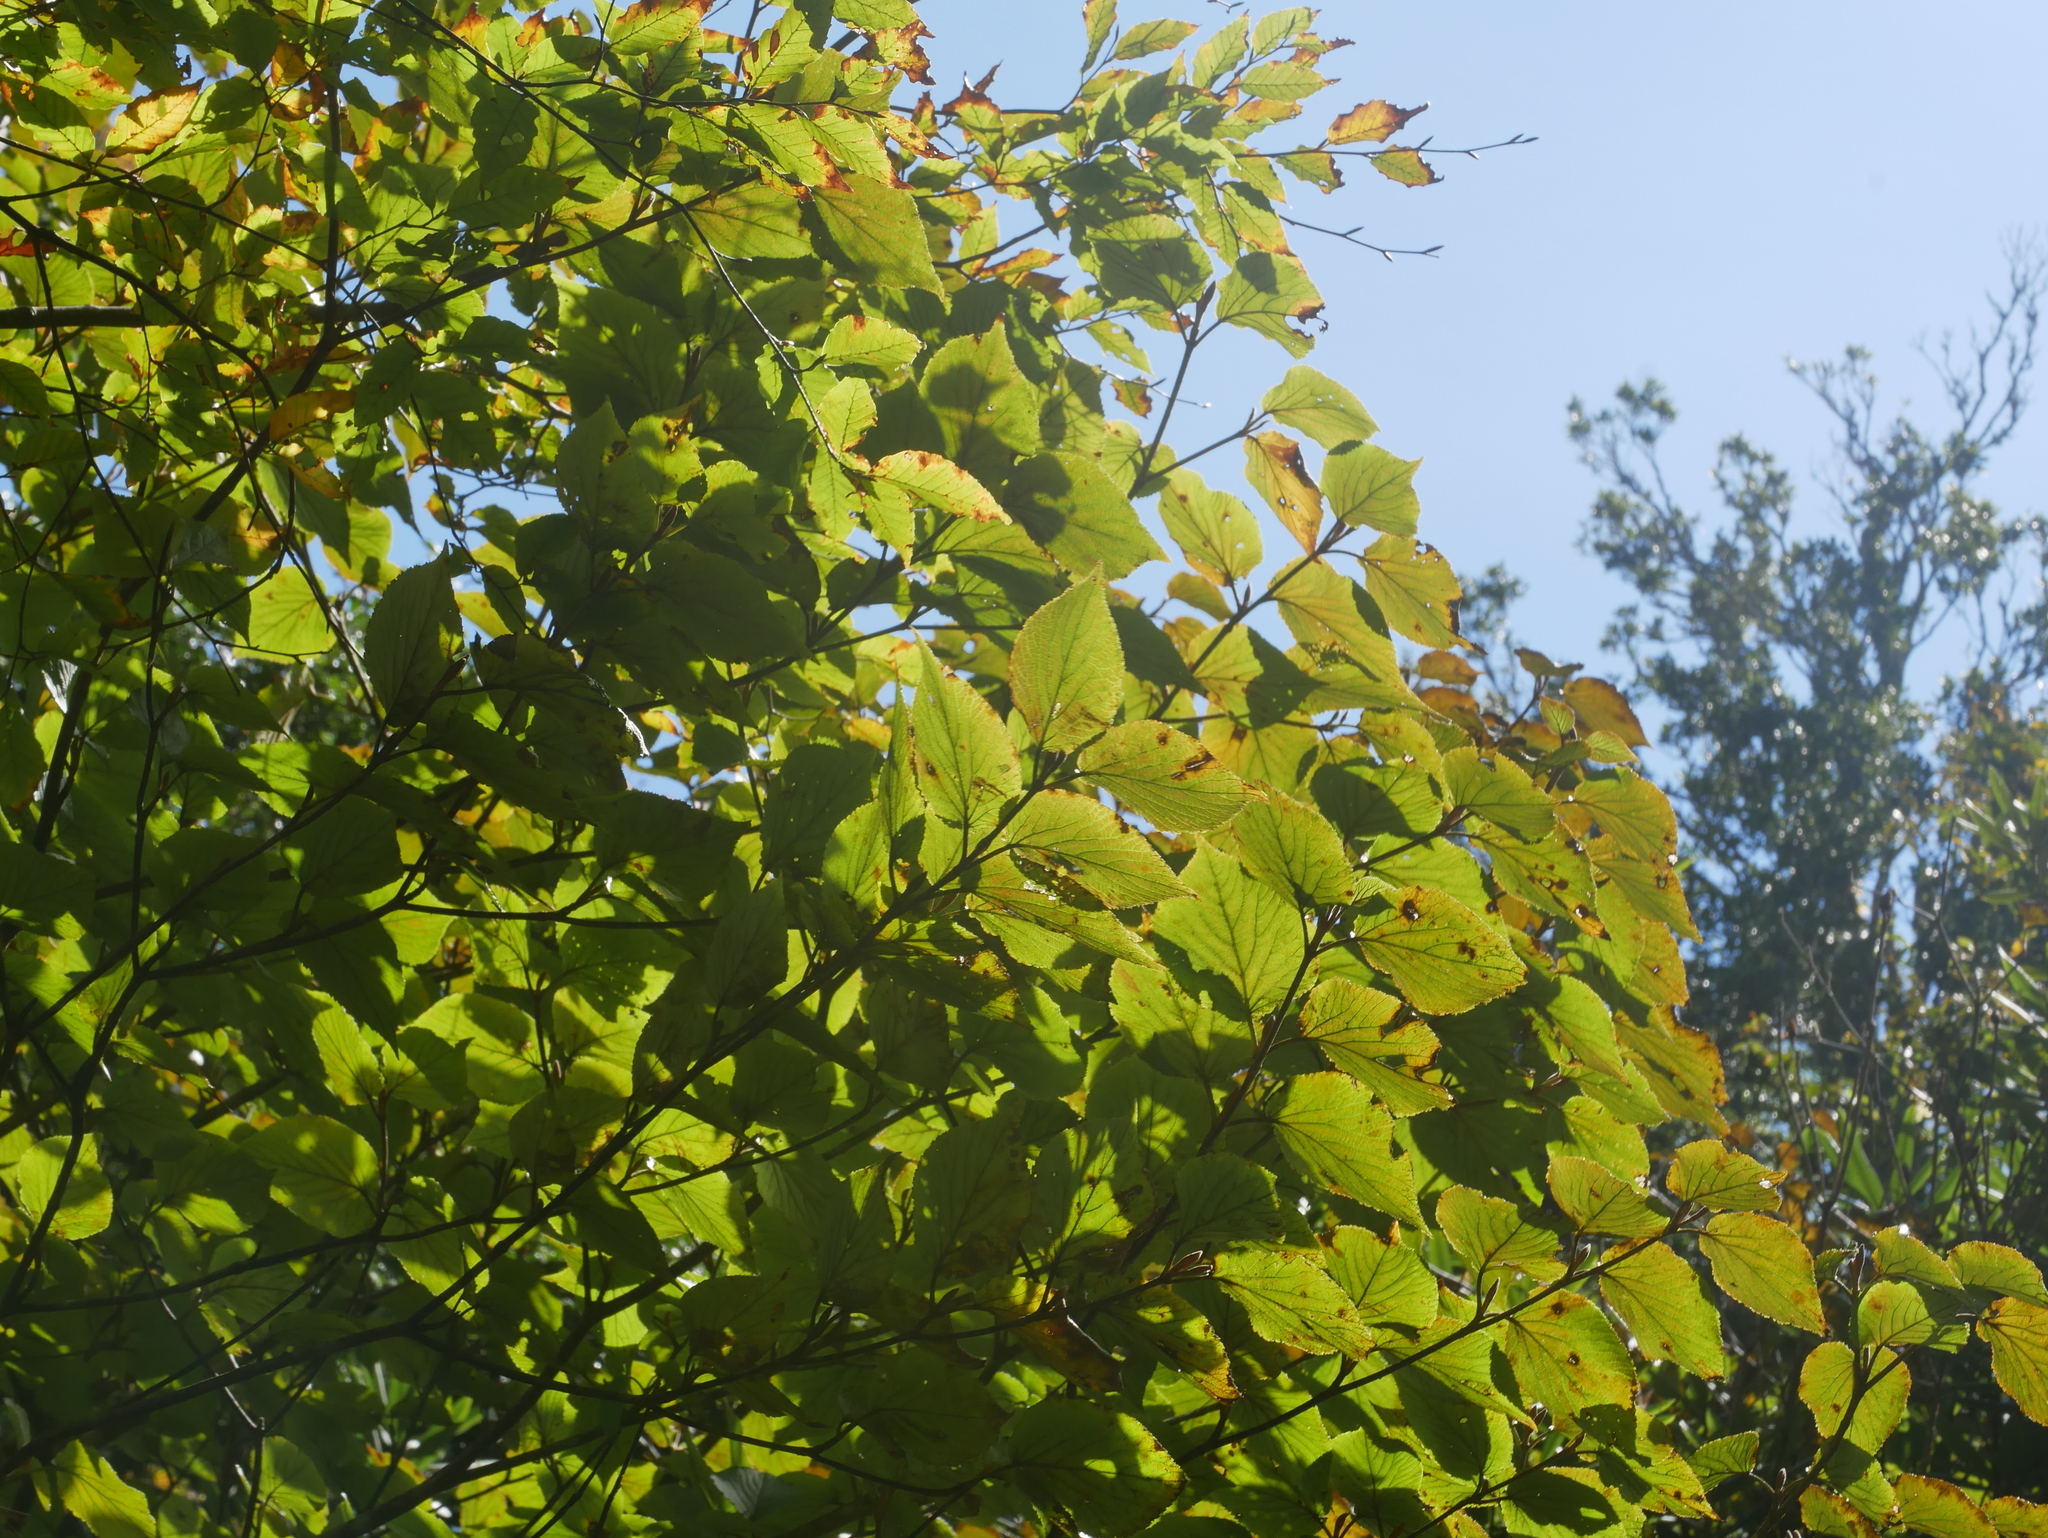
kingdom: Plantae
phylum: Tracheophyta
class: Magnoliopsida
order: Dipsacales
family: Viburnaceae
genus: Viburnum
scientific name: Viburnum furcatum
